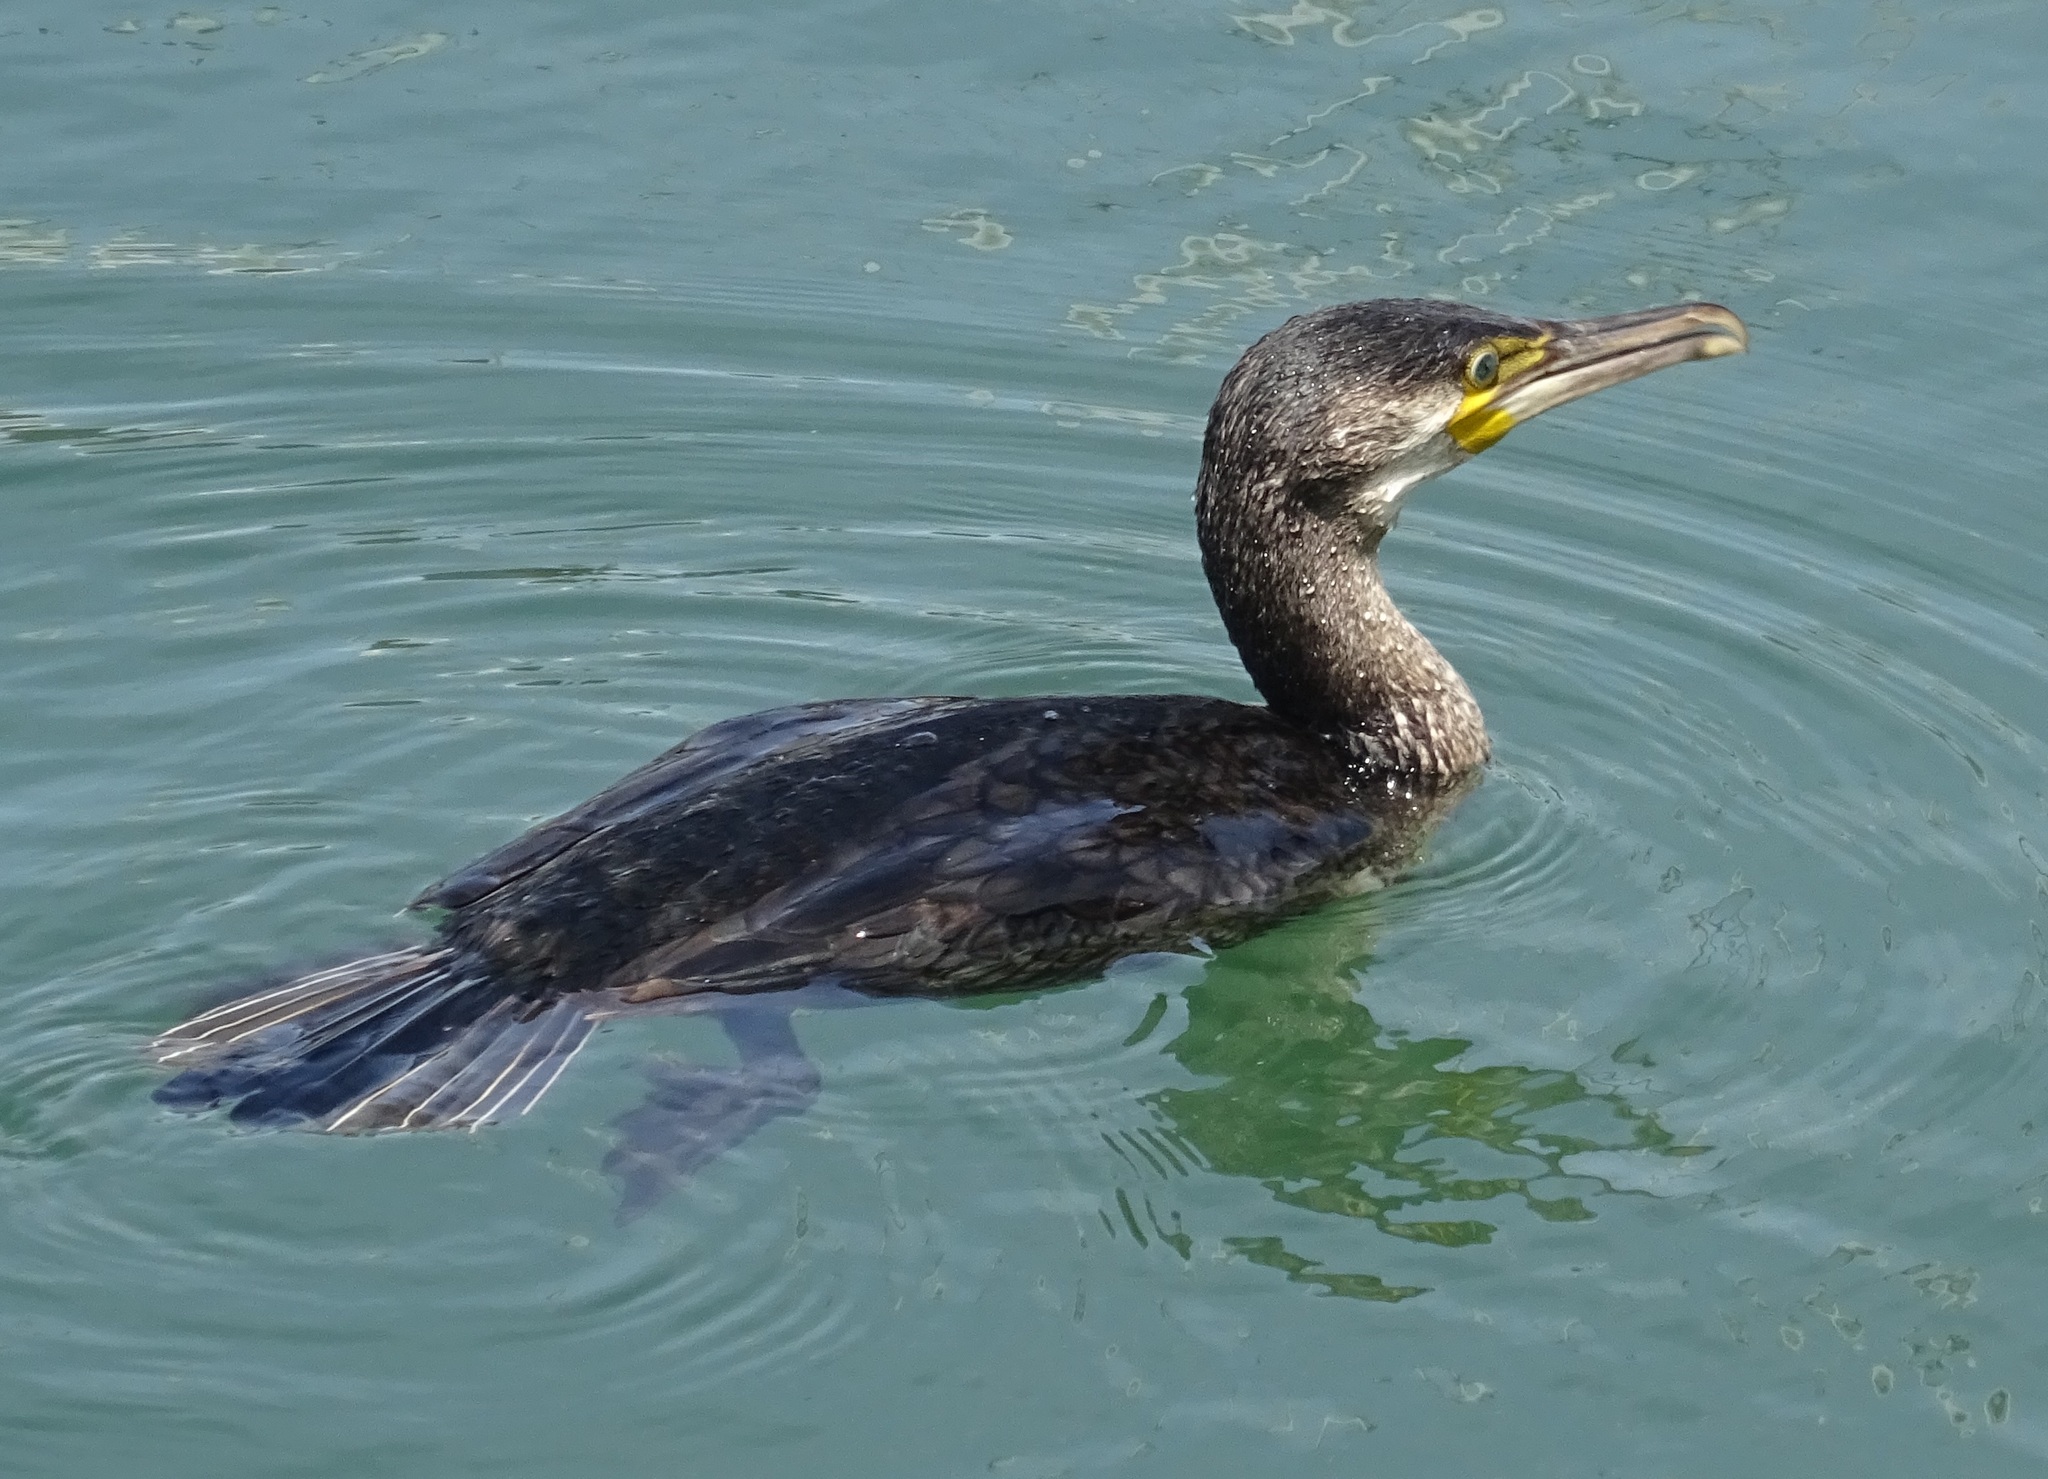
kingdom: Animalia
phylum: Chordata
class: Aves
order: Suliformes
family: Phalacrocoracidae
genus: Phalacrocorax
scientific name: Phalacrocorax carbo
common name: Great cormorant
